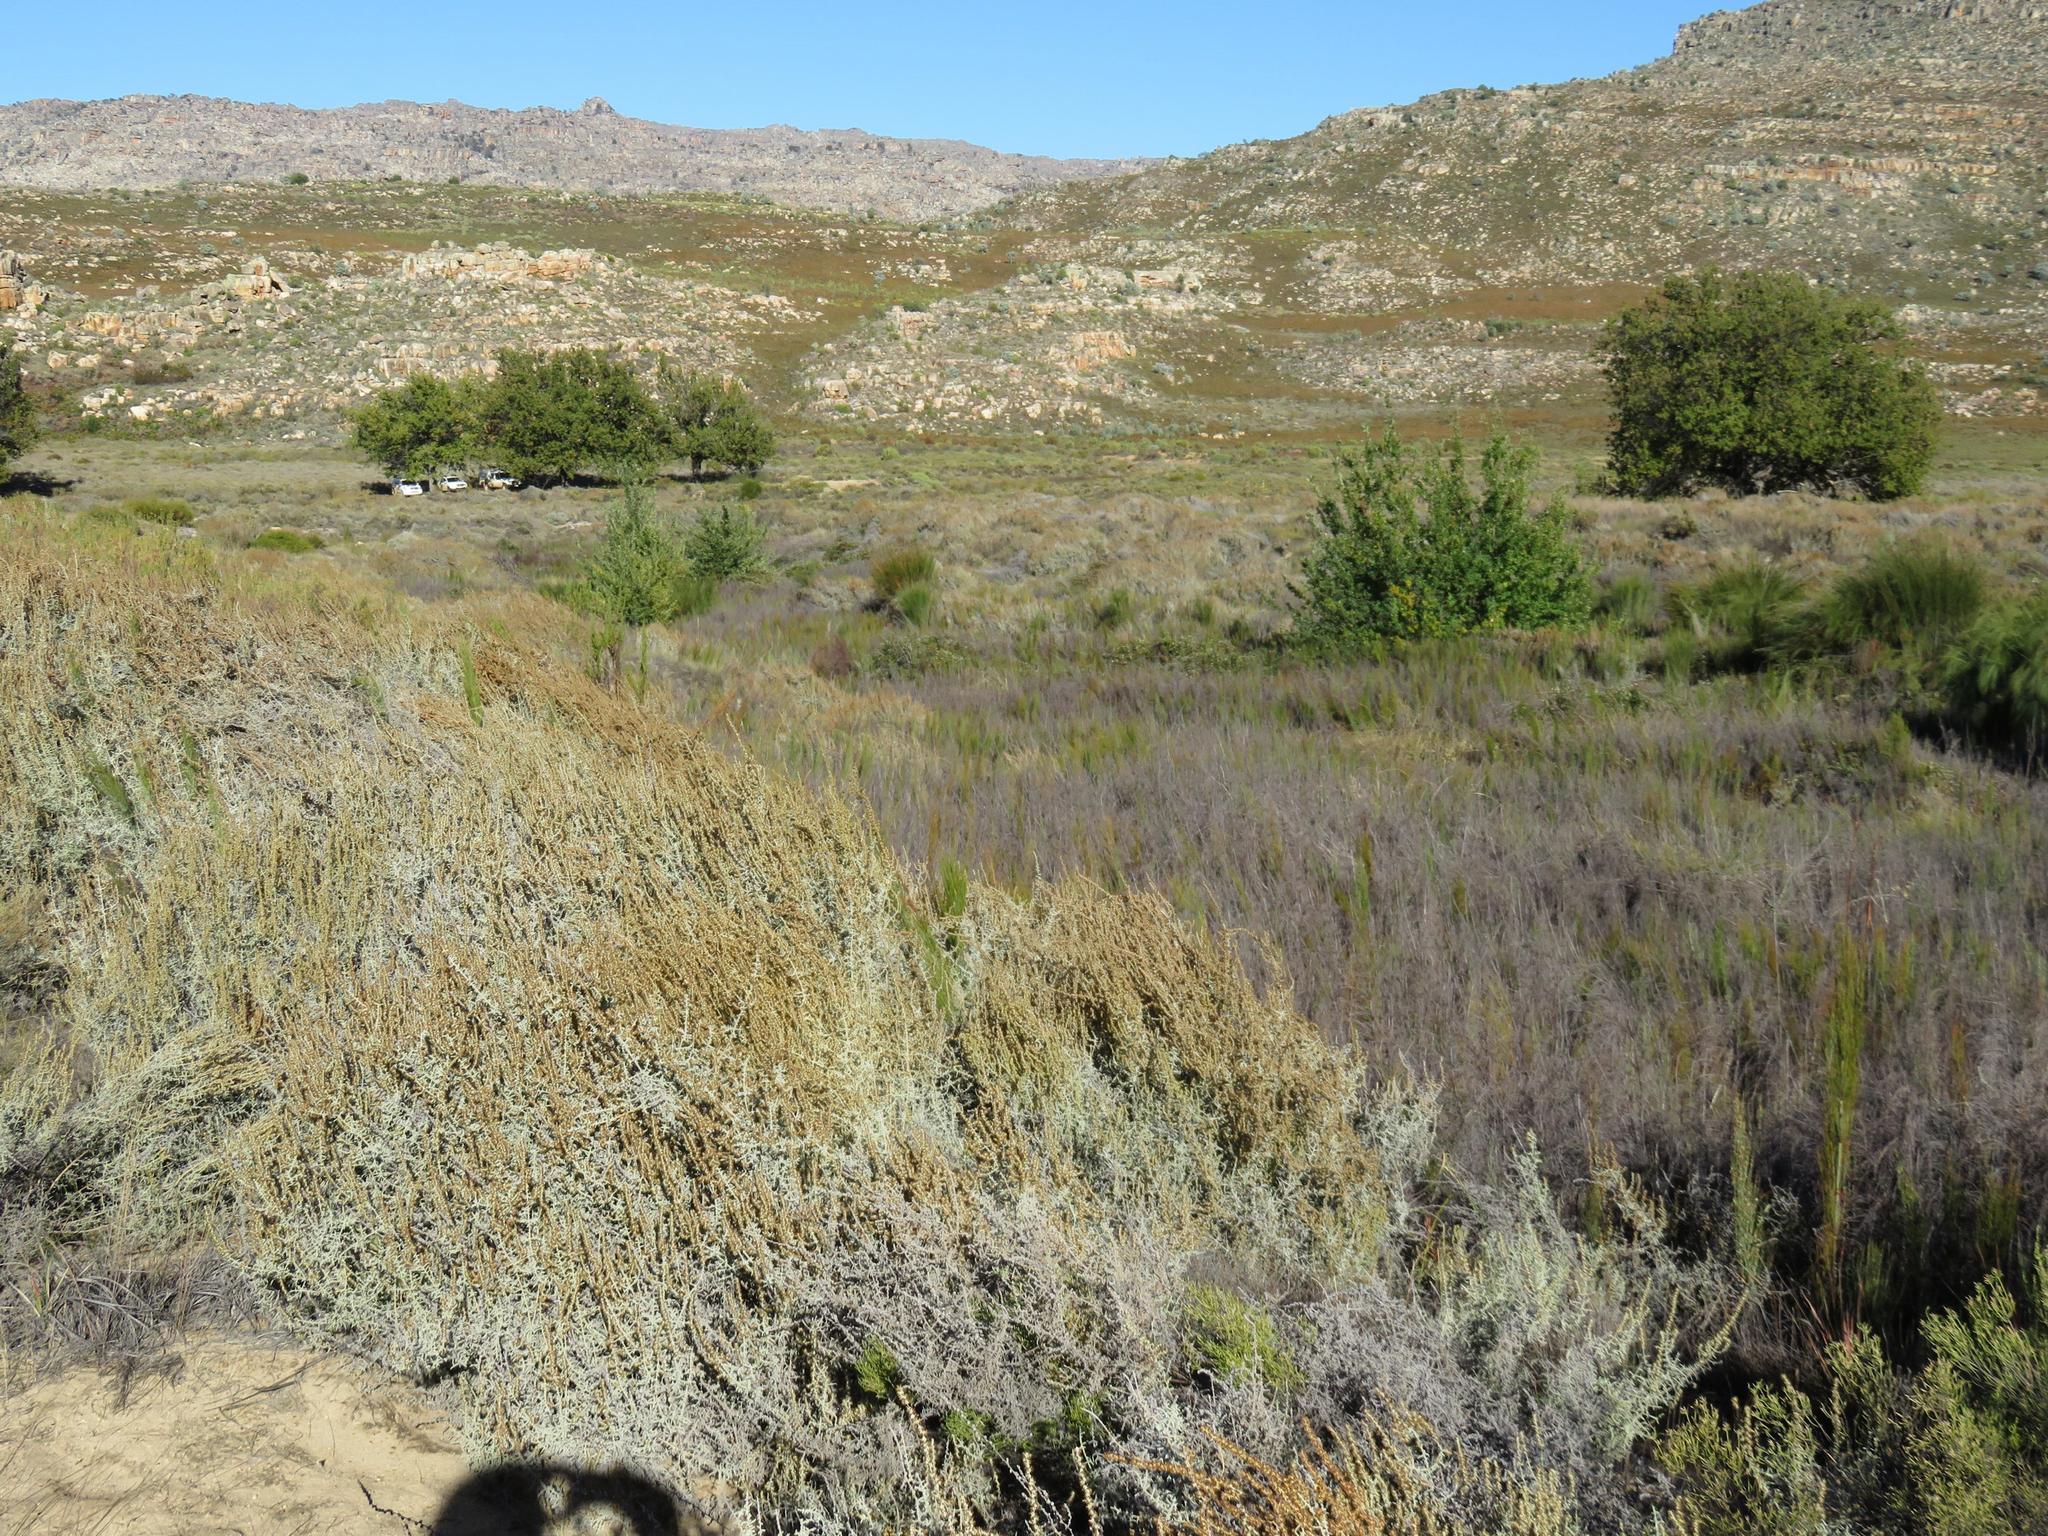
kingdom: Plantae
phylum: Tracheophyta
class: Magnoliopsida
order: Fagales
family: Fagaceae
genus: Quercus
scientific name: Quercus robur
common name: Pedunculate oak
